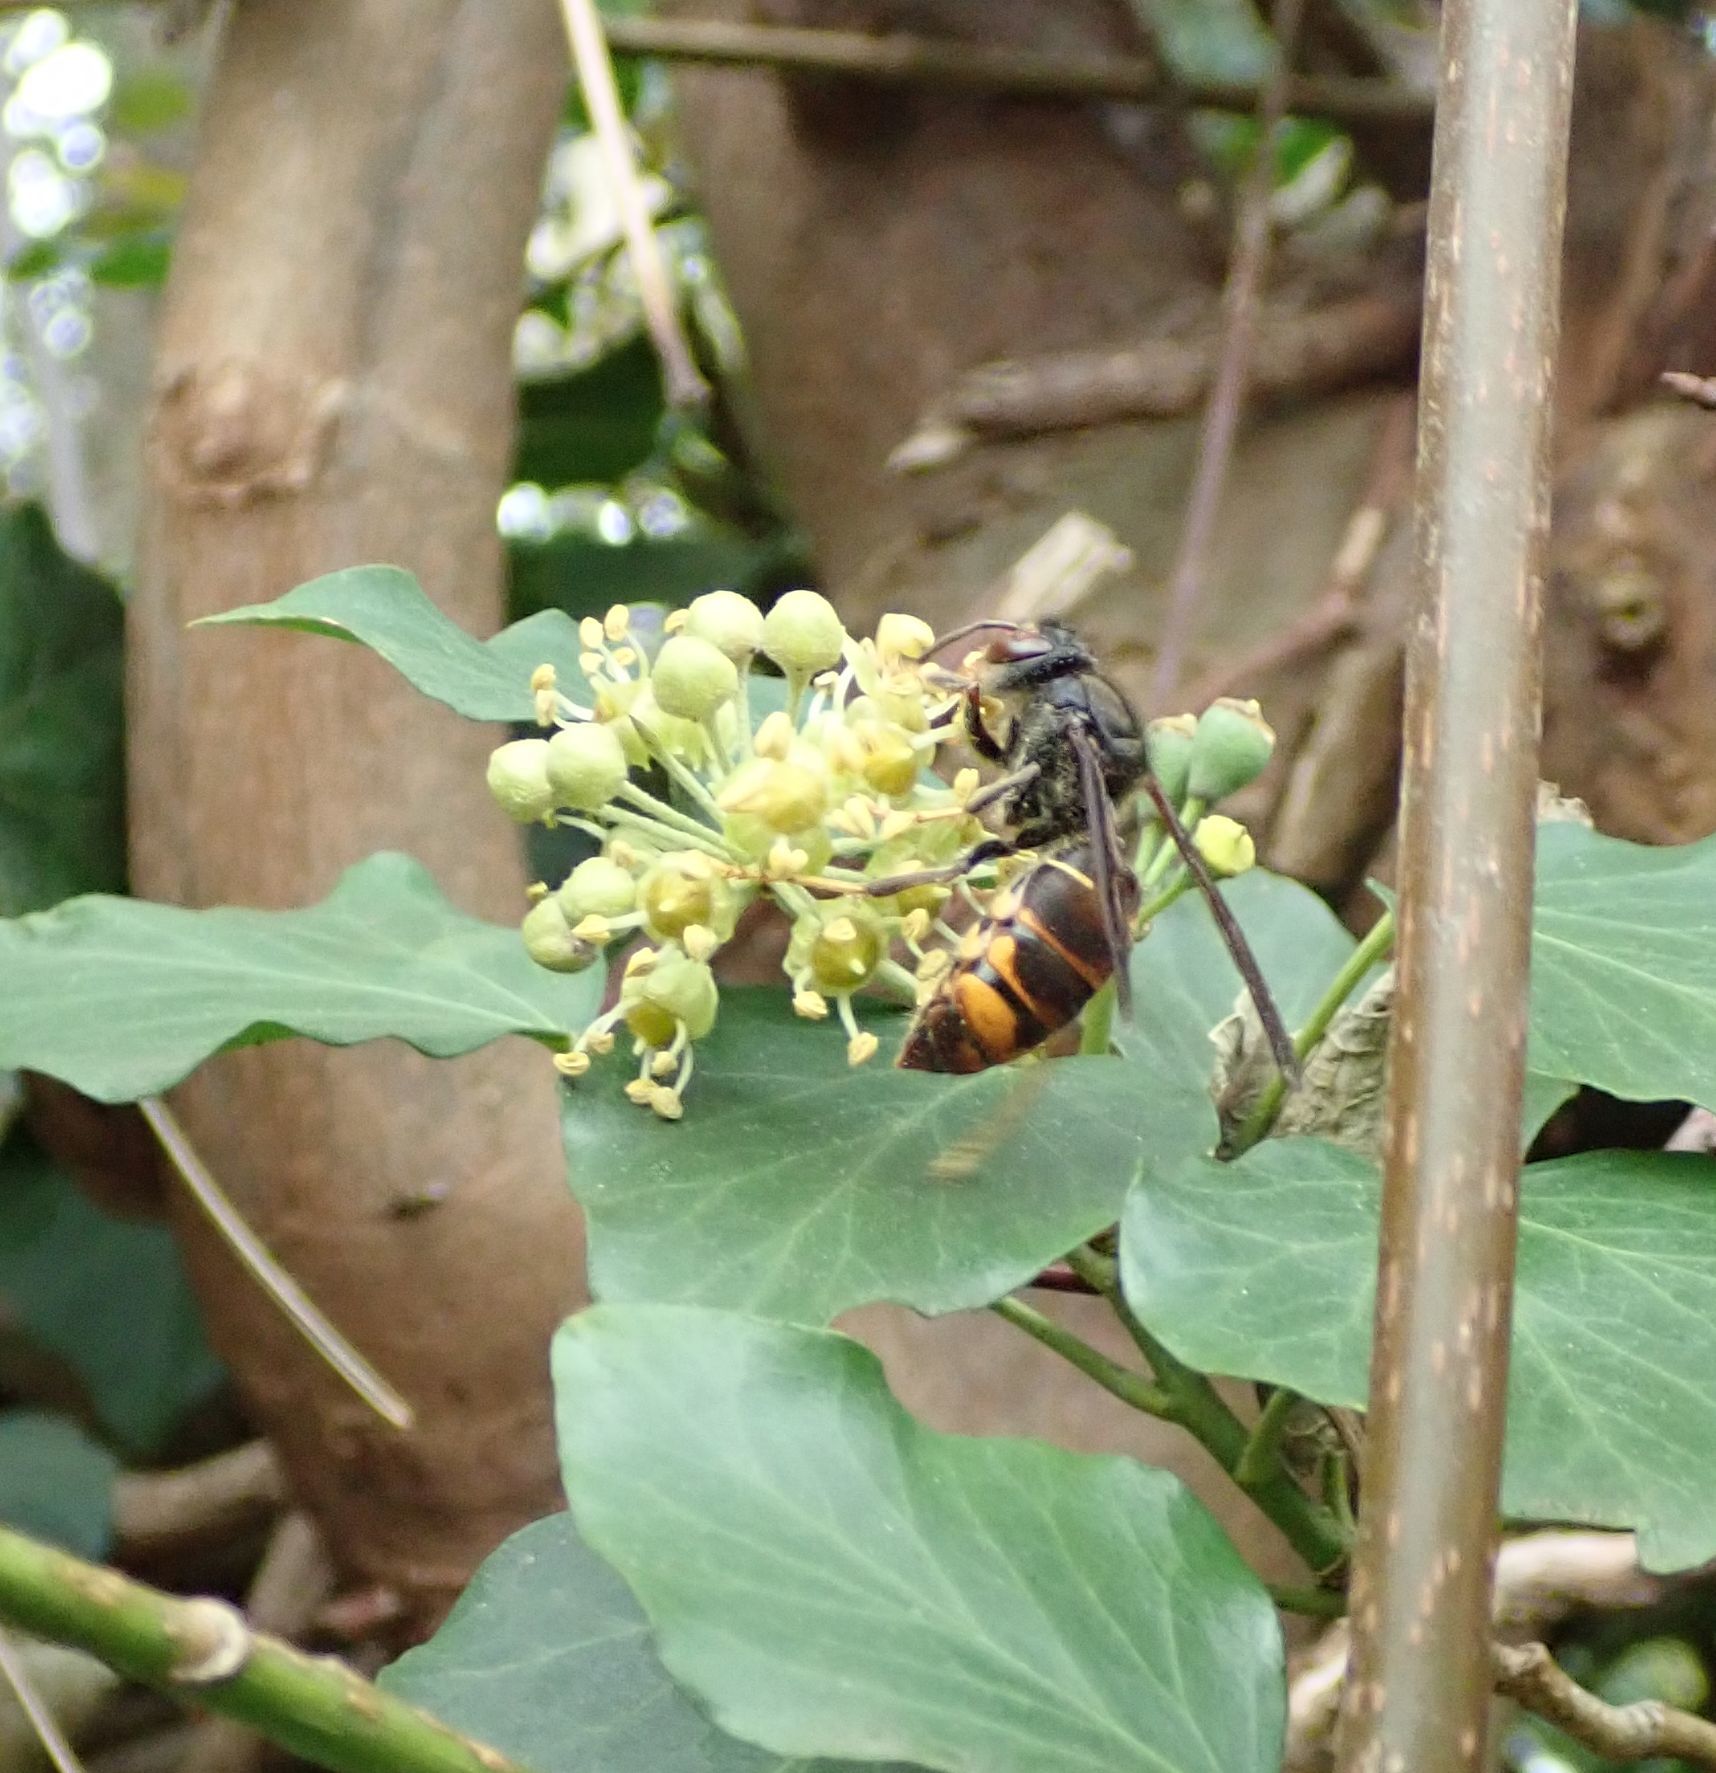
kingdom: Animalia
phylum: Arthropoda
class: Insecta
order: Hymenoptera
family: Vespidae
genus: Vespa
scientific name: Vespa velutina
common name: Asian hornet
